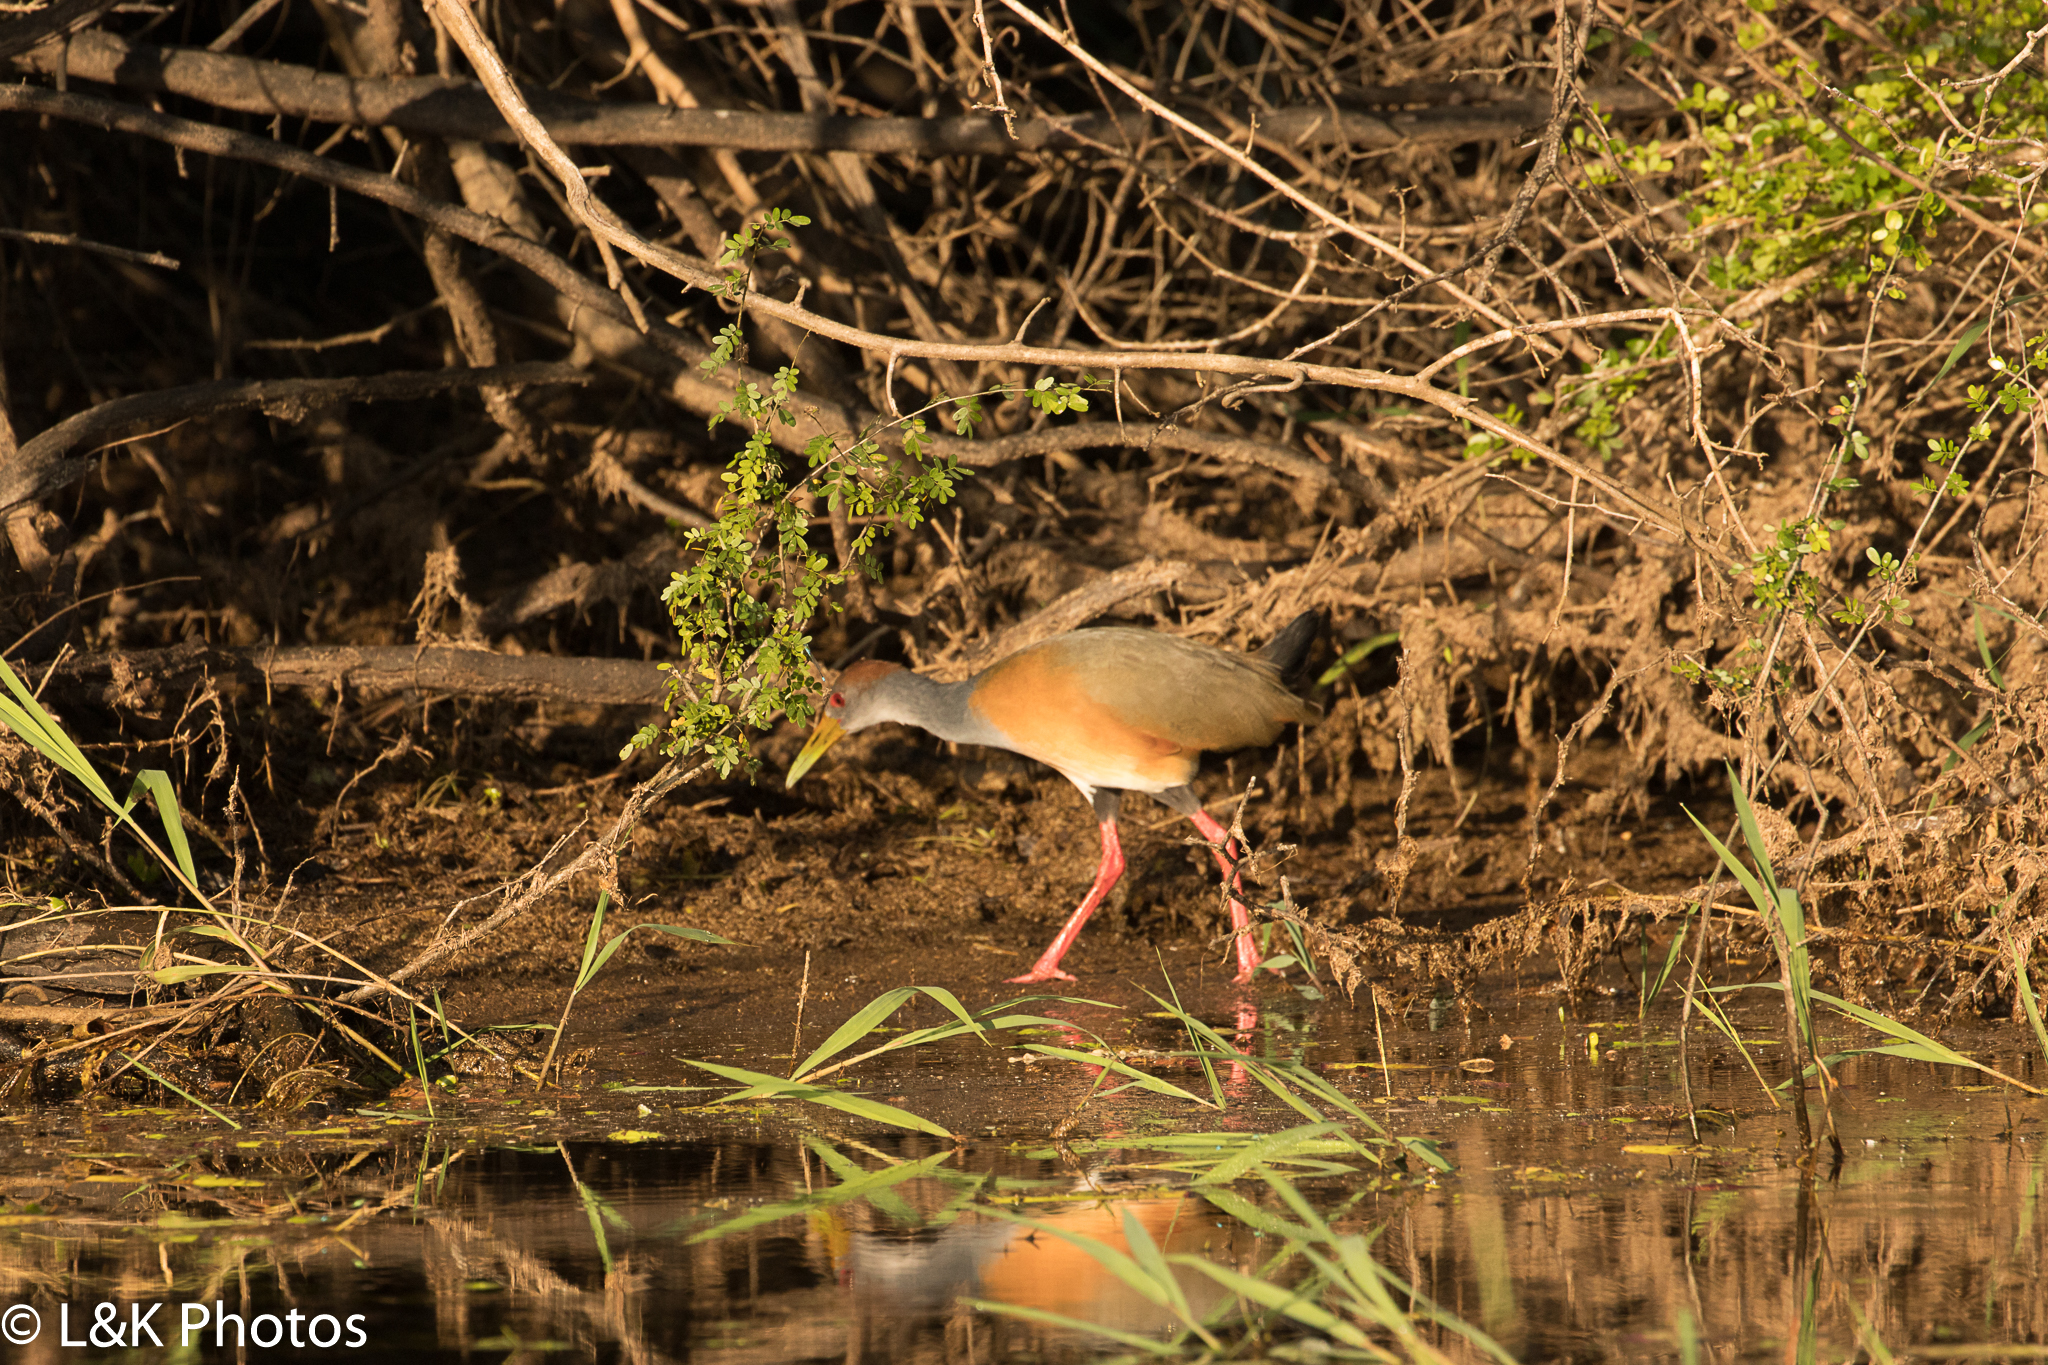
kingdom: Animalia
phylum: Chordata
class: Aves
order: Gruiformes
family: Rallidae
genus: Aramides
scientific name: Aramides albiventris
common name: Russet-naped wood-rail
